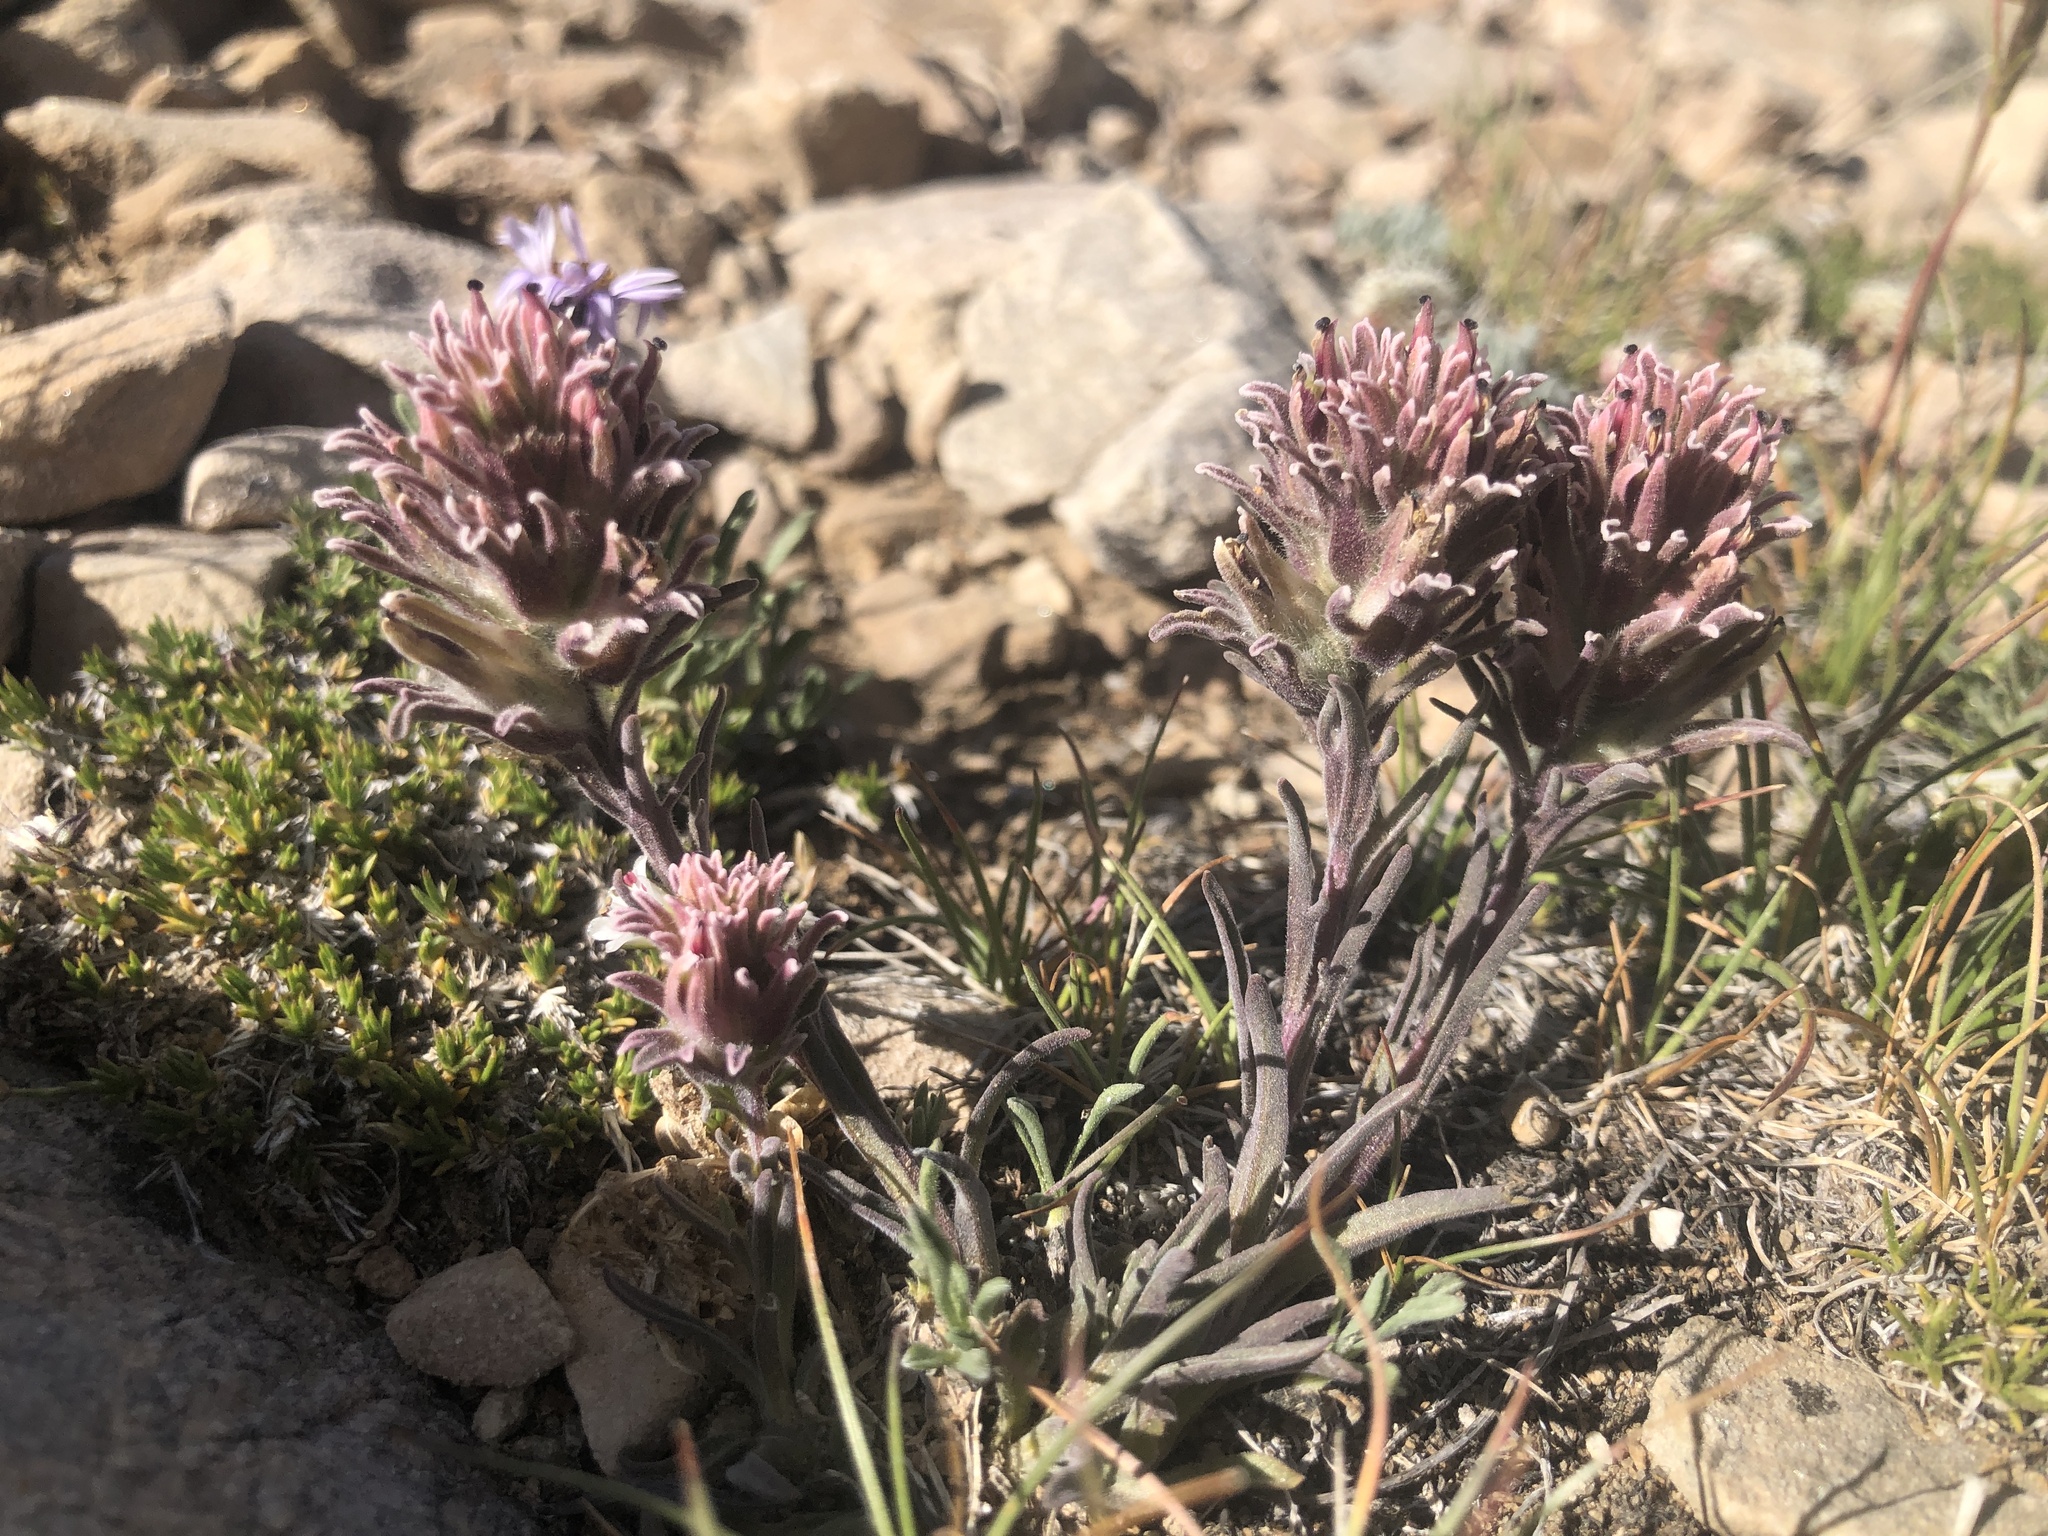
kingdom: Plantae
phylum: Tracheophyta
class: Magnoliopsida
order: Lamiales
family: Orobanchaceae
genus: Castilleja
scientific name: Castilleja nana
